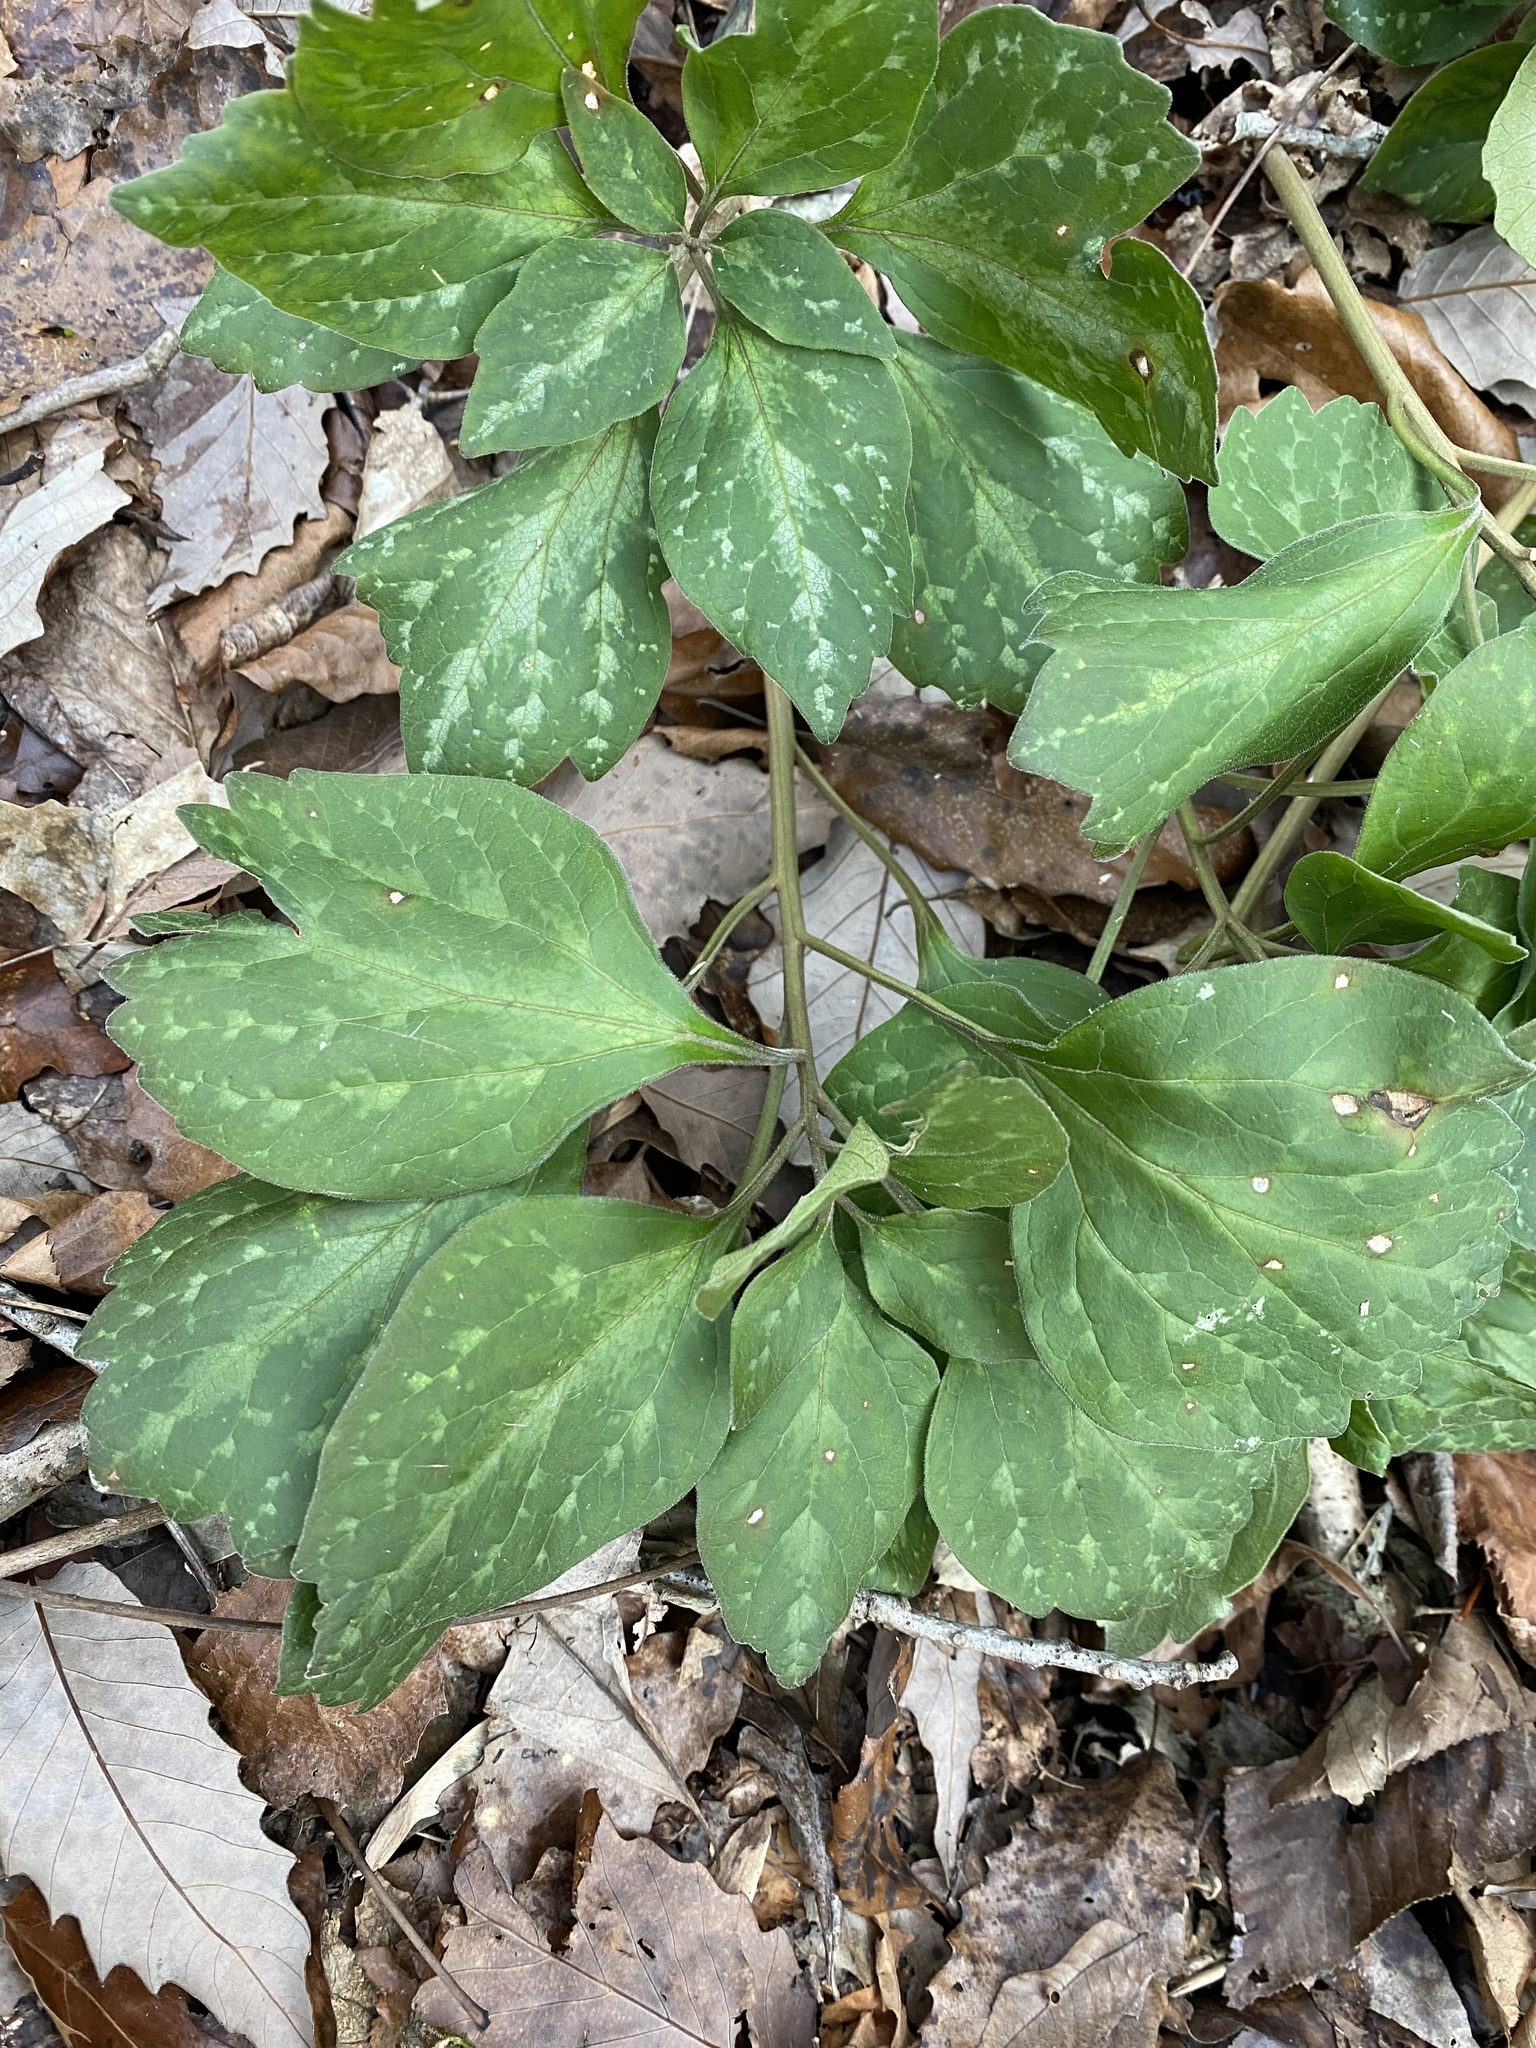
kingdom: Plantae
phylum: Tracheophyta
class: Magnoliopsida
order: Buxales
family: Buxaceae
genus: Pachysandra
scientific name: Pachysandra procumbens
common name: Mountain-spurge
